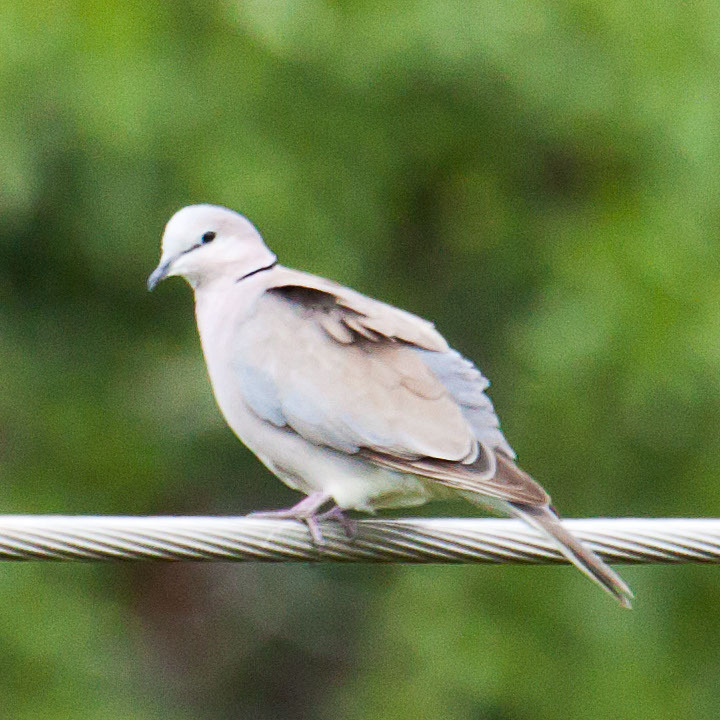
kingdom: Animalia
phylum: Chordata
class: Aves
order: Columbiformes
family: Columbidae
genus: Streptopelia
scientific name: Streptopelia capicola
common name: Ring-necked dove
